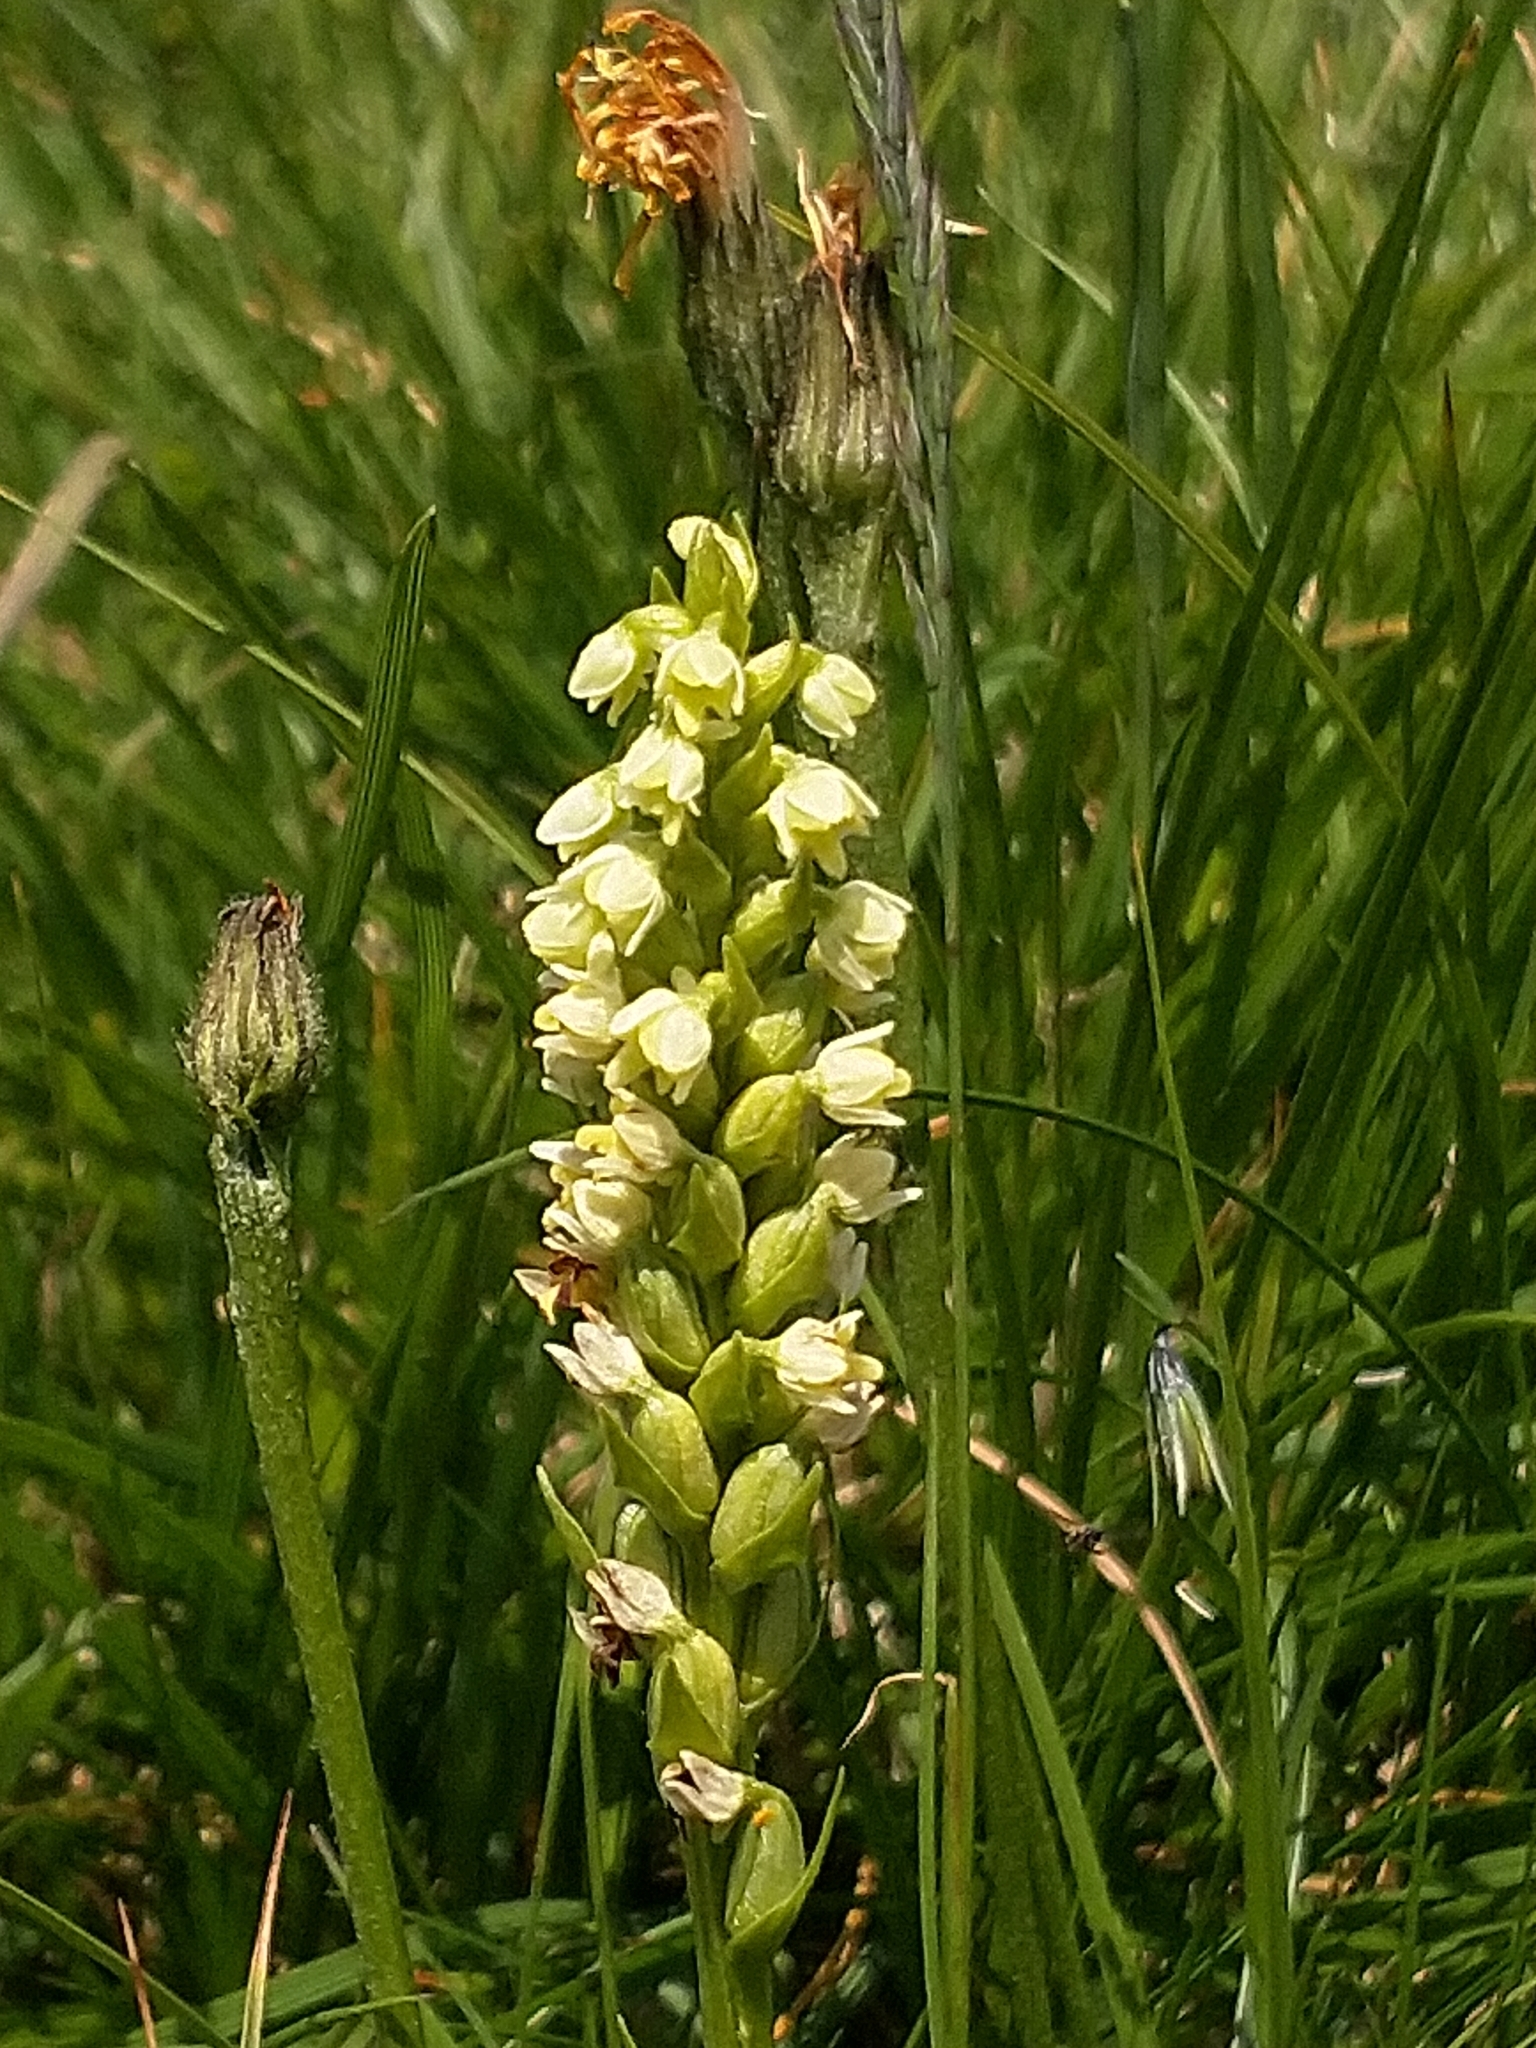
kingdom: Plantae
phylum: Tracheophyta
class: Liliopsida
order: Asparagales
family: Orchidaceae
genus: Pseudorchis
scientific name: Pseudorchis albida
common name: Small-white orchid
